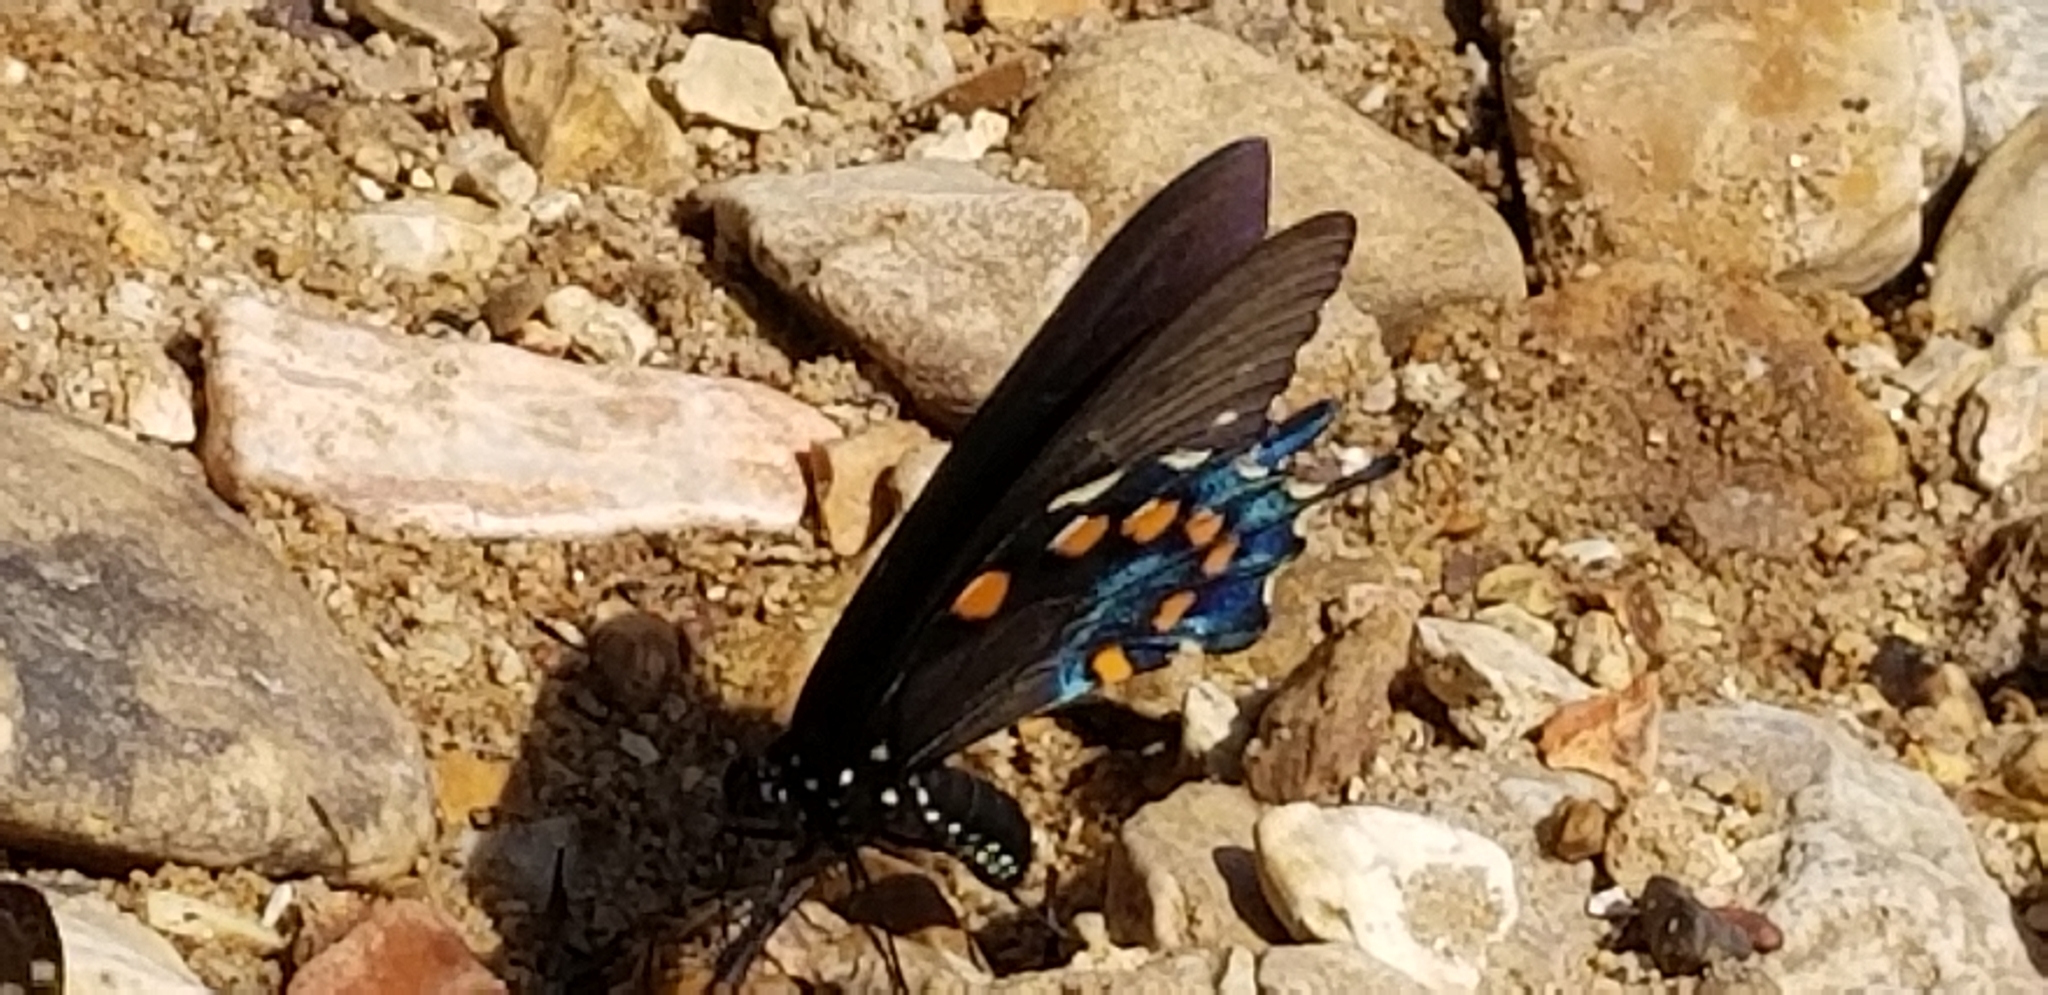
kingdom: Animalia
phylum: Arthropoda
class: Insecta
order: Lepidoptera
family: Papilionidae
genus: Battus
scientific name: Battus philenor
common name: Pipevine swallowtail
